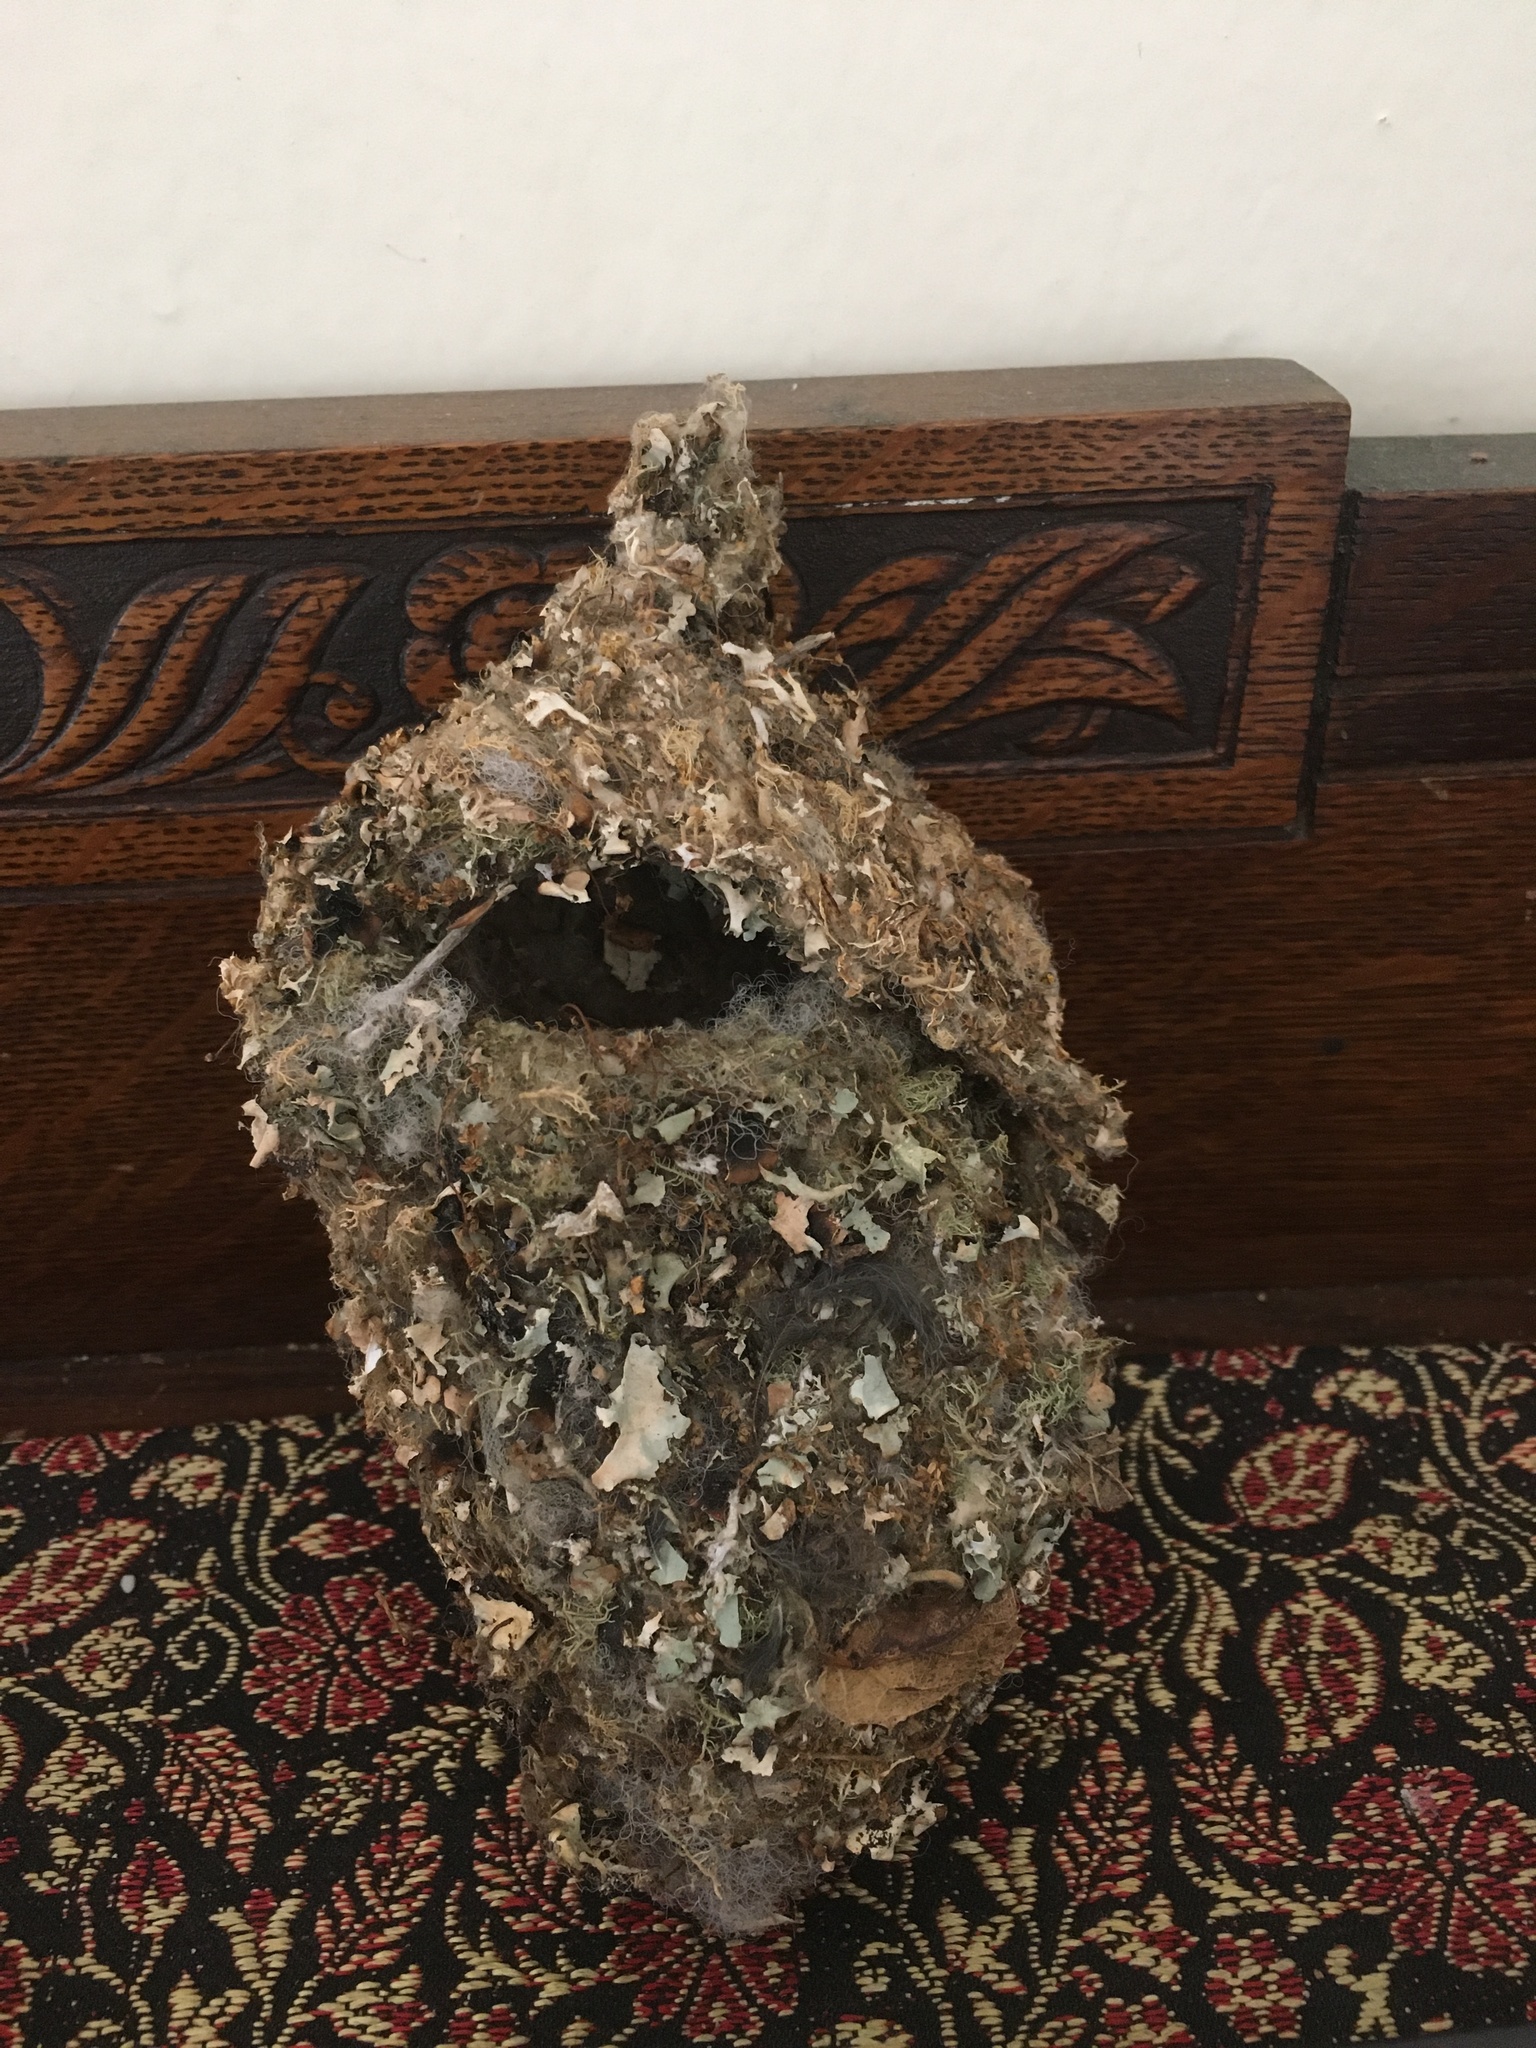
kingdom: Animalia
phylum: Chordata
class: Aves
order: Passeriformes
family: Aegithalidae
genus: Psaltriparus
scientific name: Psaltriparus minimus
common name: American bushtit
